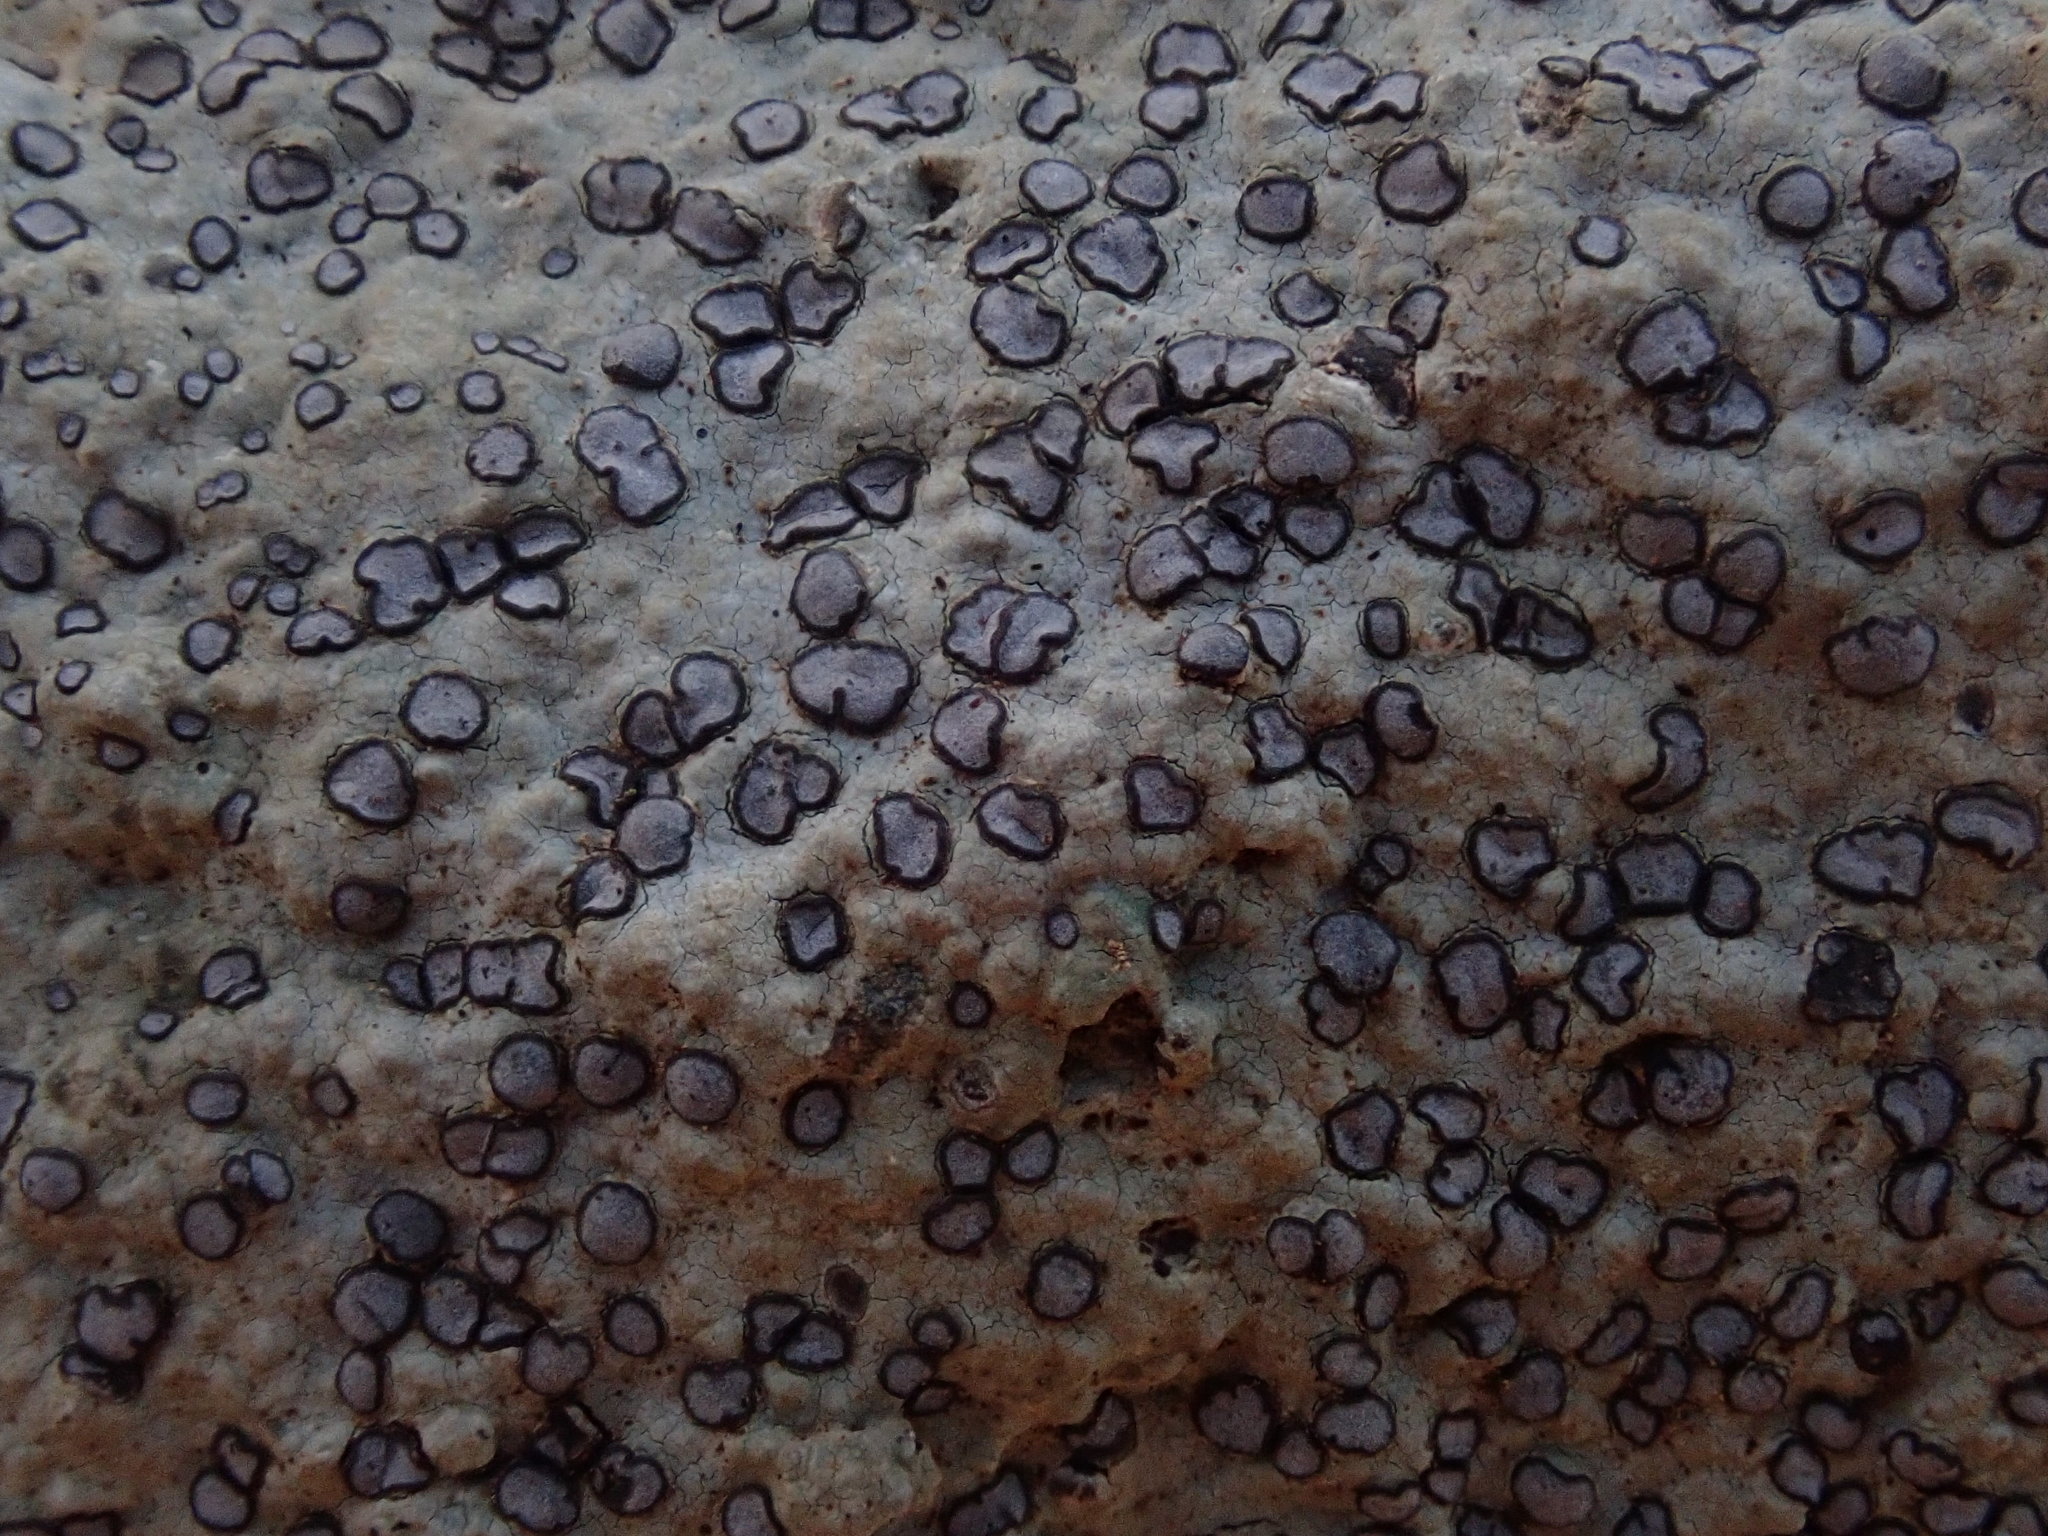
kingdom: Fungi
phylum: Ascomycota
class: Lecanoromycetes
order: Lecideales
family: Lecideaceae
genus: Porpidia
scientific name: Porpidia albocaerulescens
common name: Smokey-eyed boulder lichen
